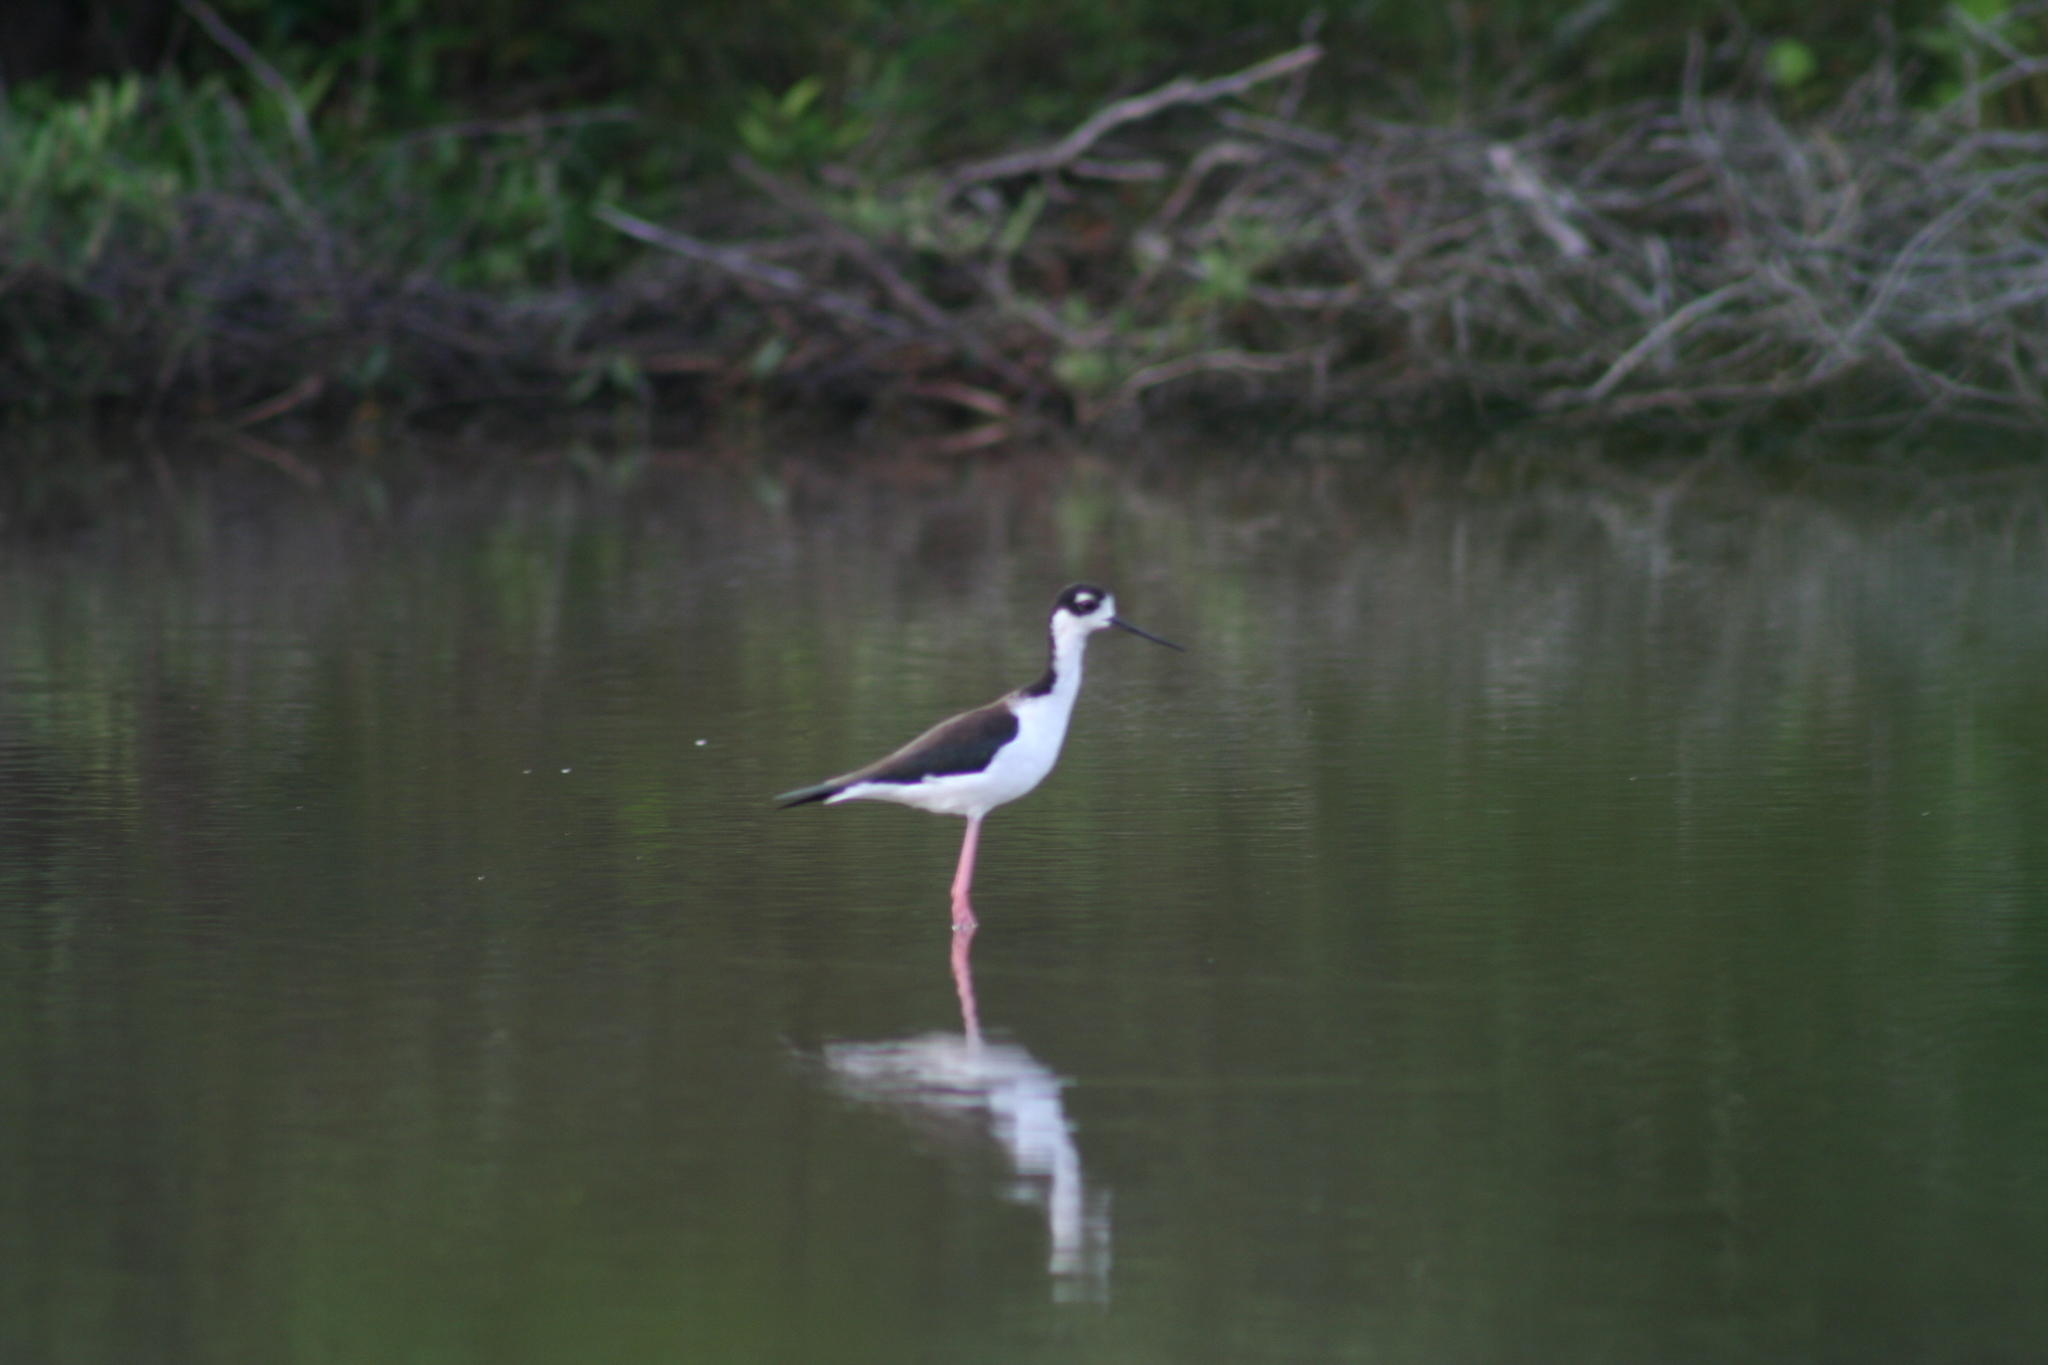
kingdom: Animalia
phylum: Chordata
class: Aves
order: Charadriiformes
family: Recurvirostridae
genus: Himantopus
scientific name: Himantopus mexicanus
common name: Black-necked stilt
